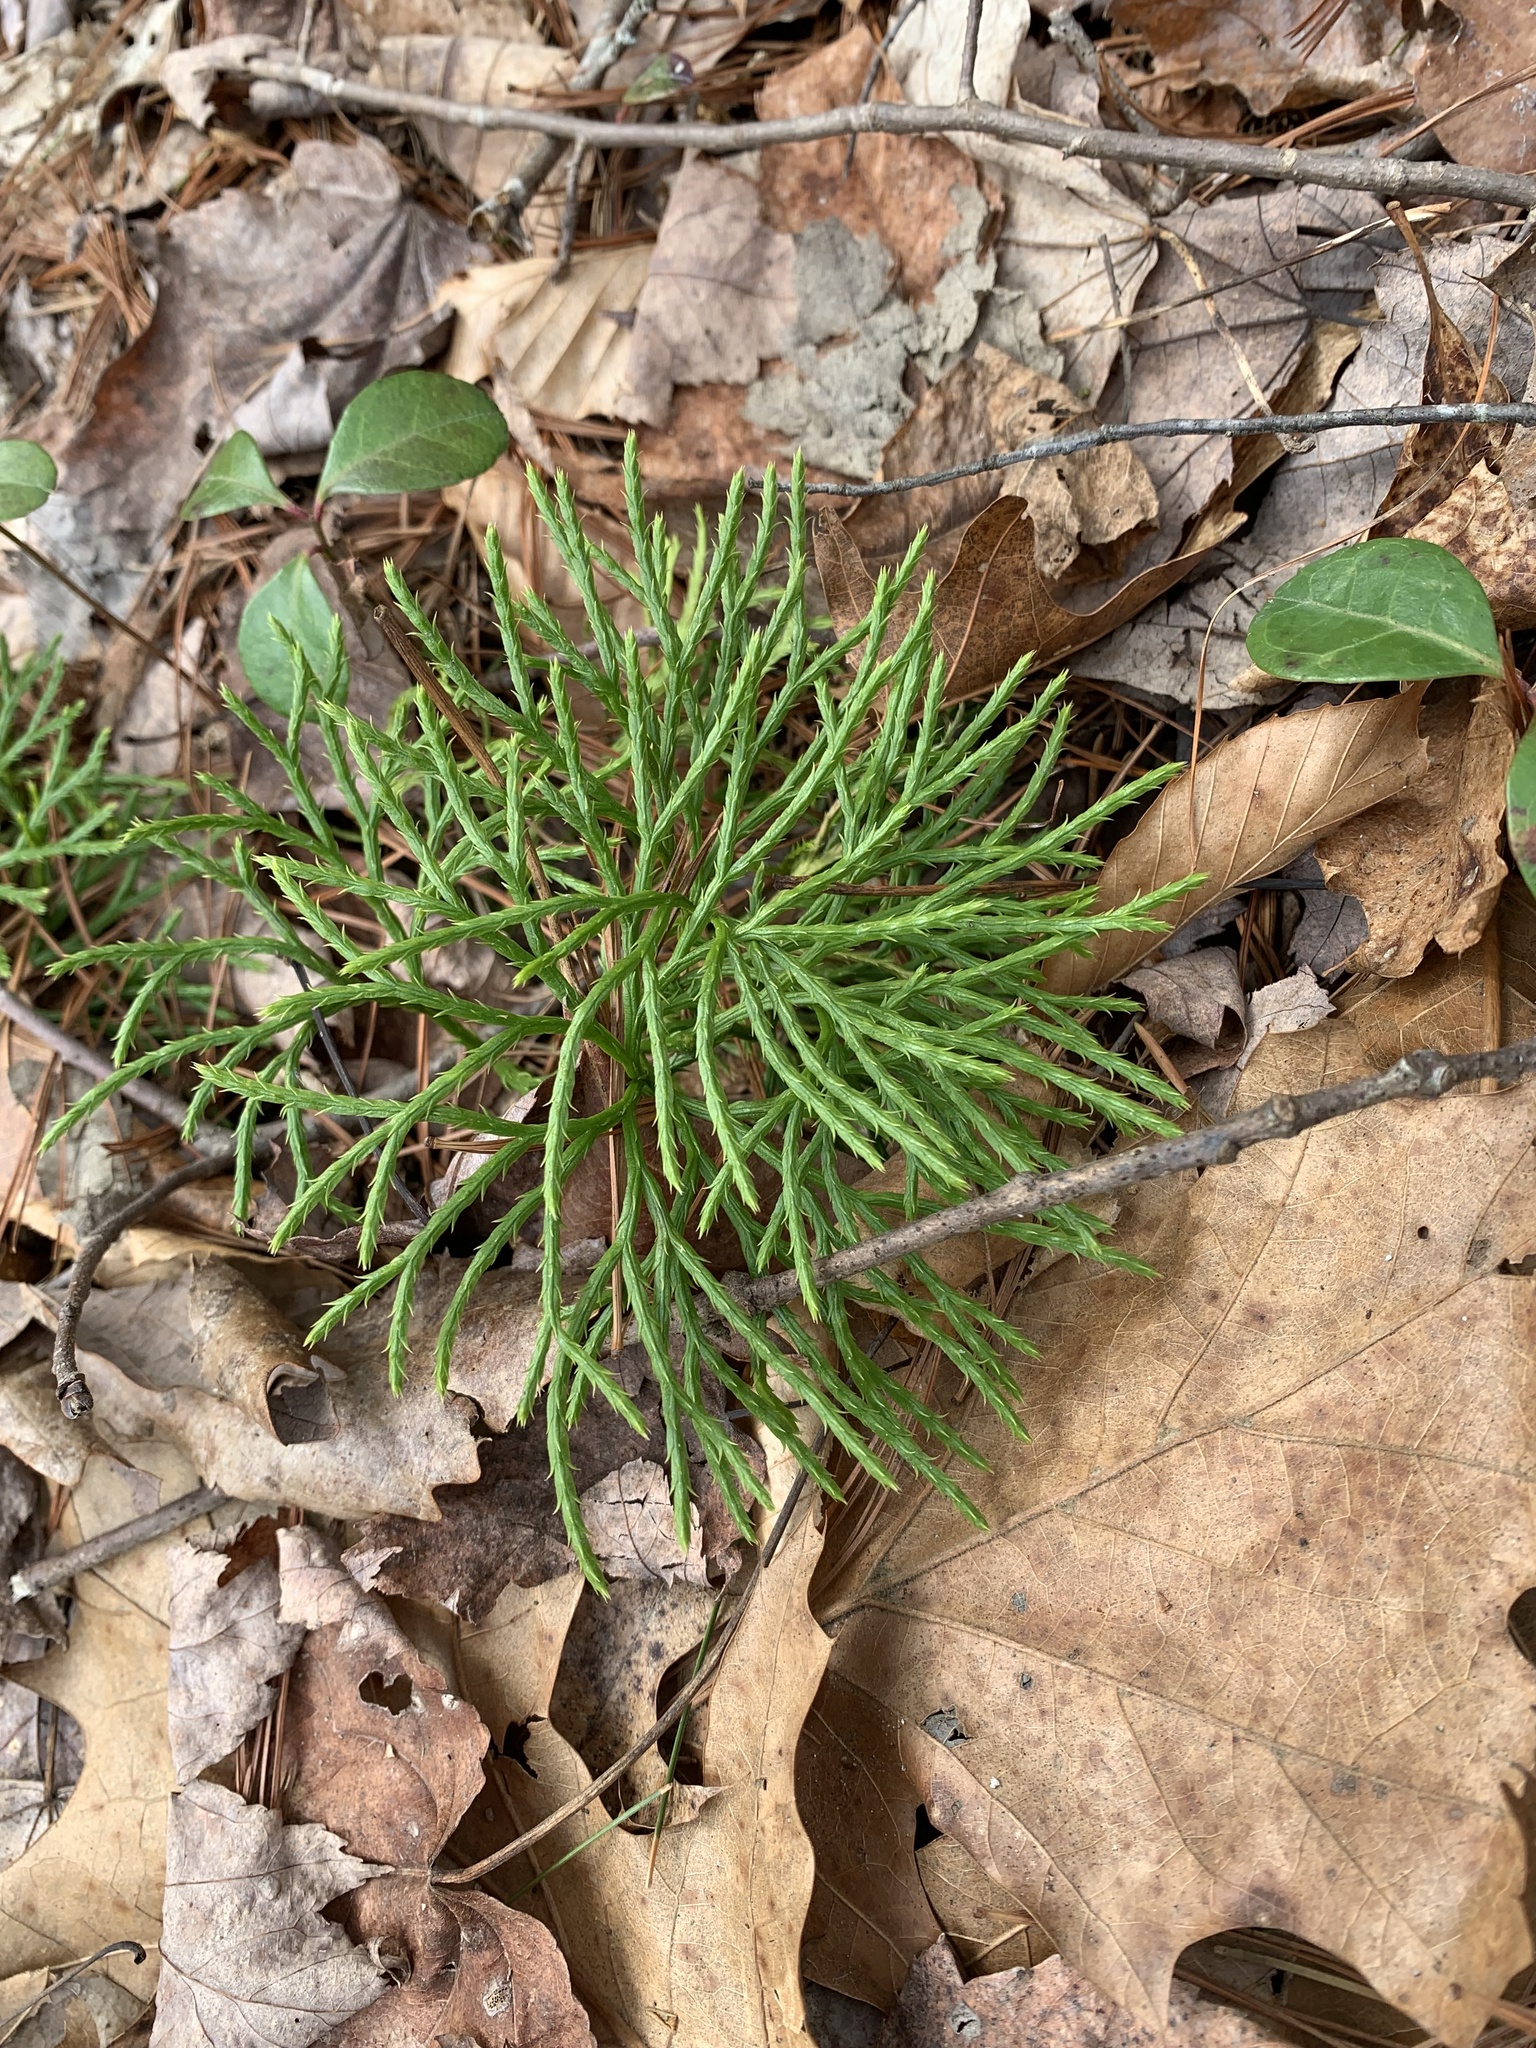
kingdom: Plantae
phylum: Tracheophyta
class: Lycopodiopsida
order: Lycopodiales
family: Lycopodiaceae
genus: Diphasiastrum
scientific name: Diphasiastrum digitatum
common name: Southern running-pine
